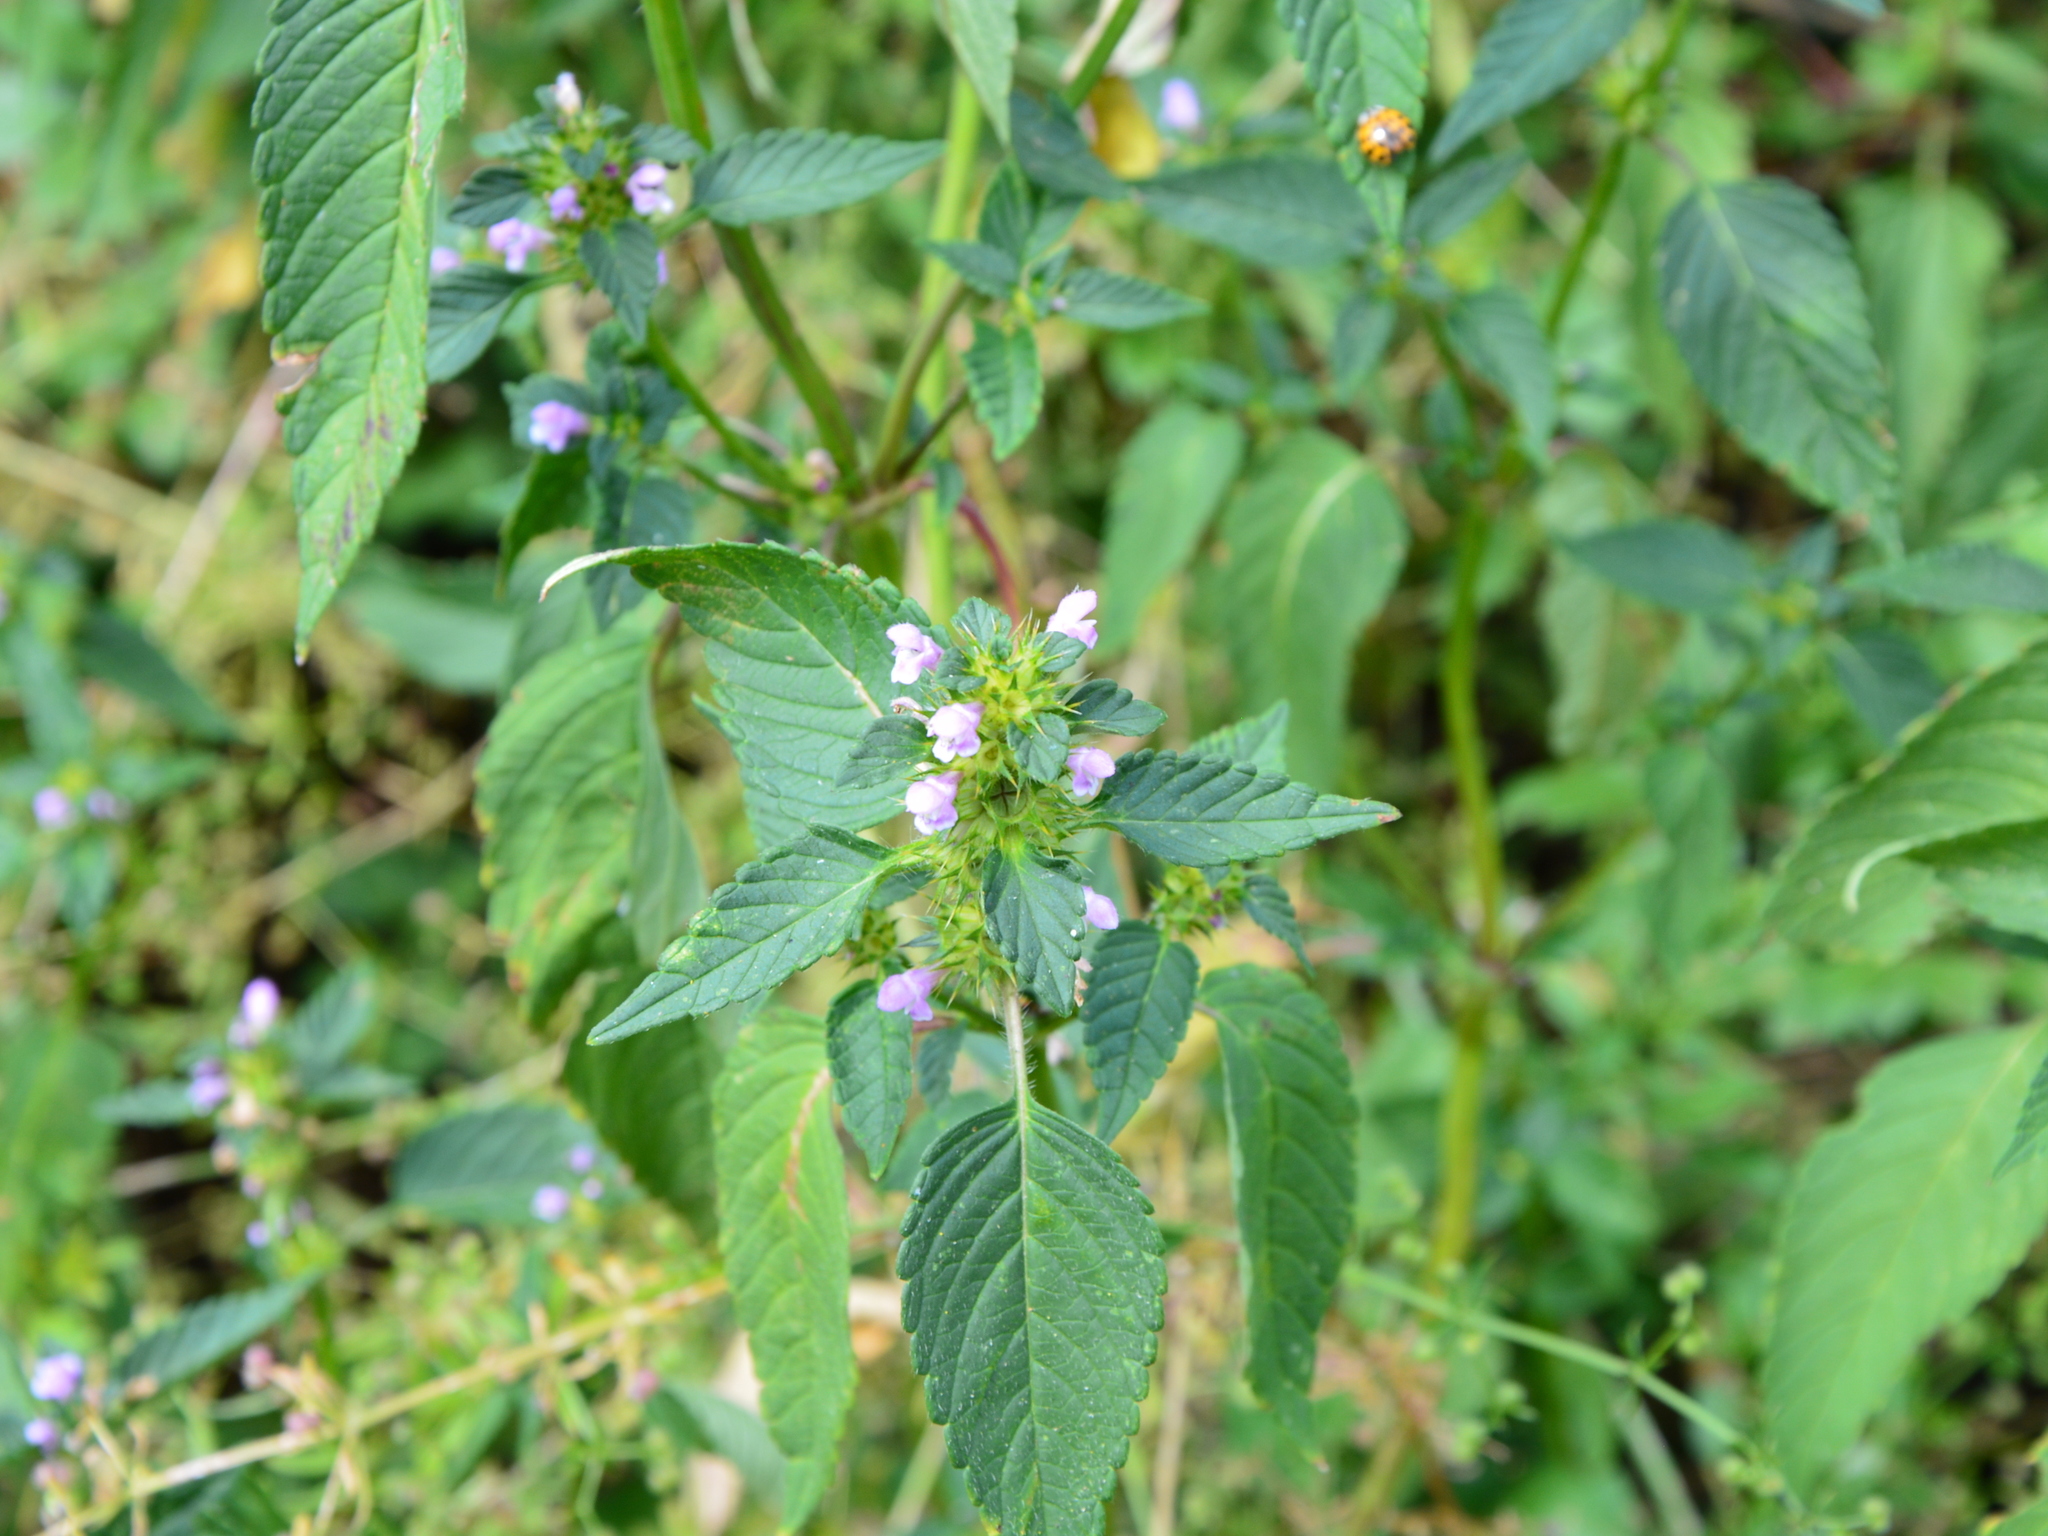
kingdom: Plantae
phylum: Tracheophyta
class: Magnoliopsida
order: Lamiales
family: Lamiaceae
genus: Galeopsis
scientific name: Galeopsis tetrahit
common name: Common hemp-nettle
